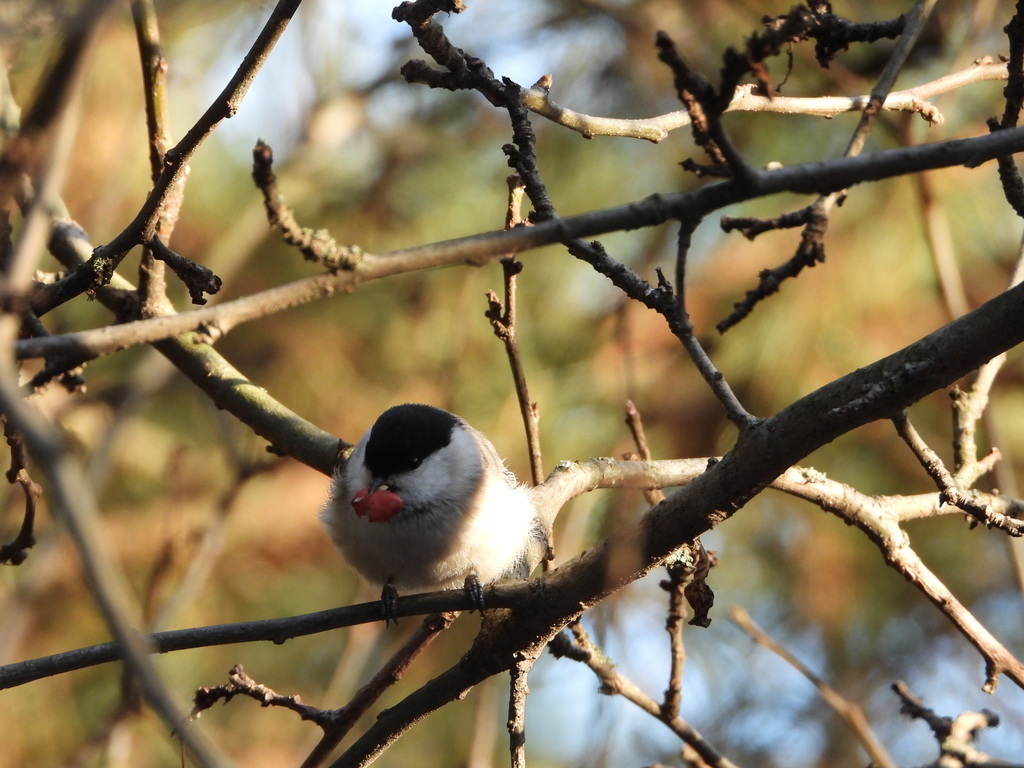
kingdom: Animalia
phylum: Chordata
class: Aves
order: Passeriformes
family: Paridae
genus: Poecile
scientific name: Poecile montanus
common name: Willow tit
